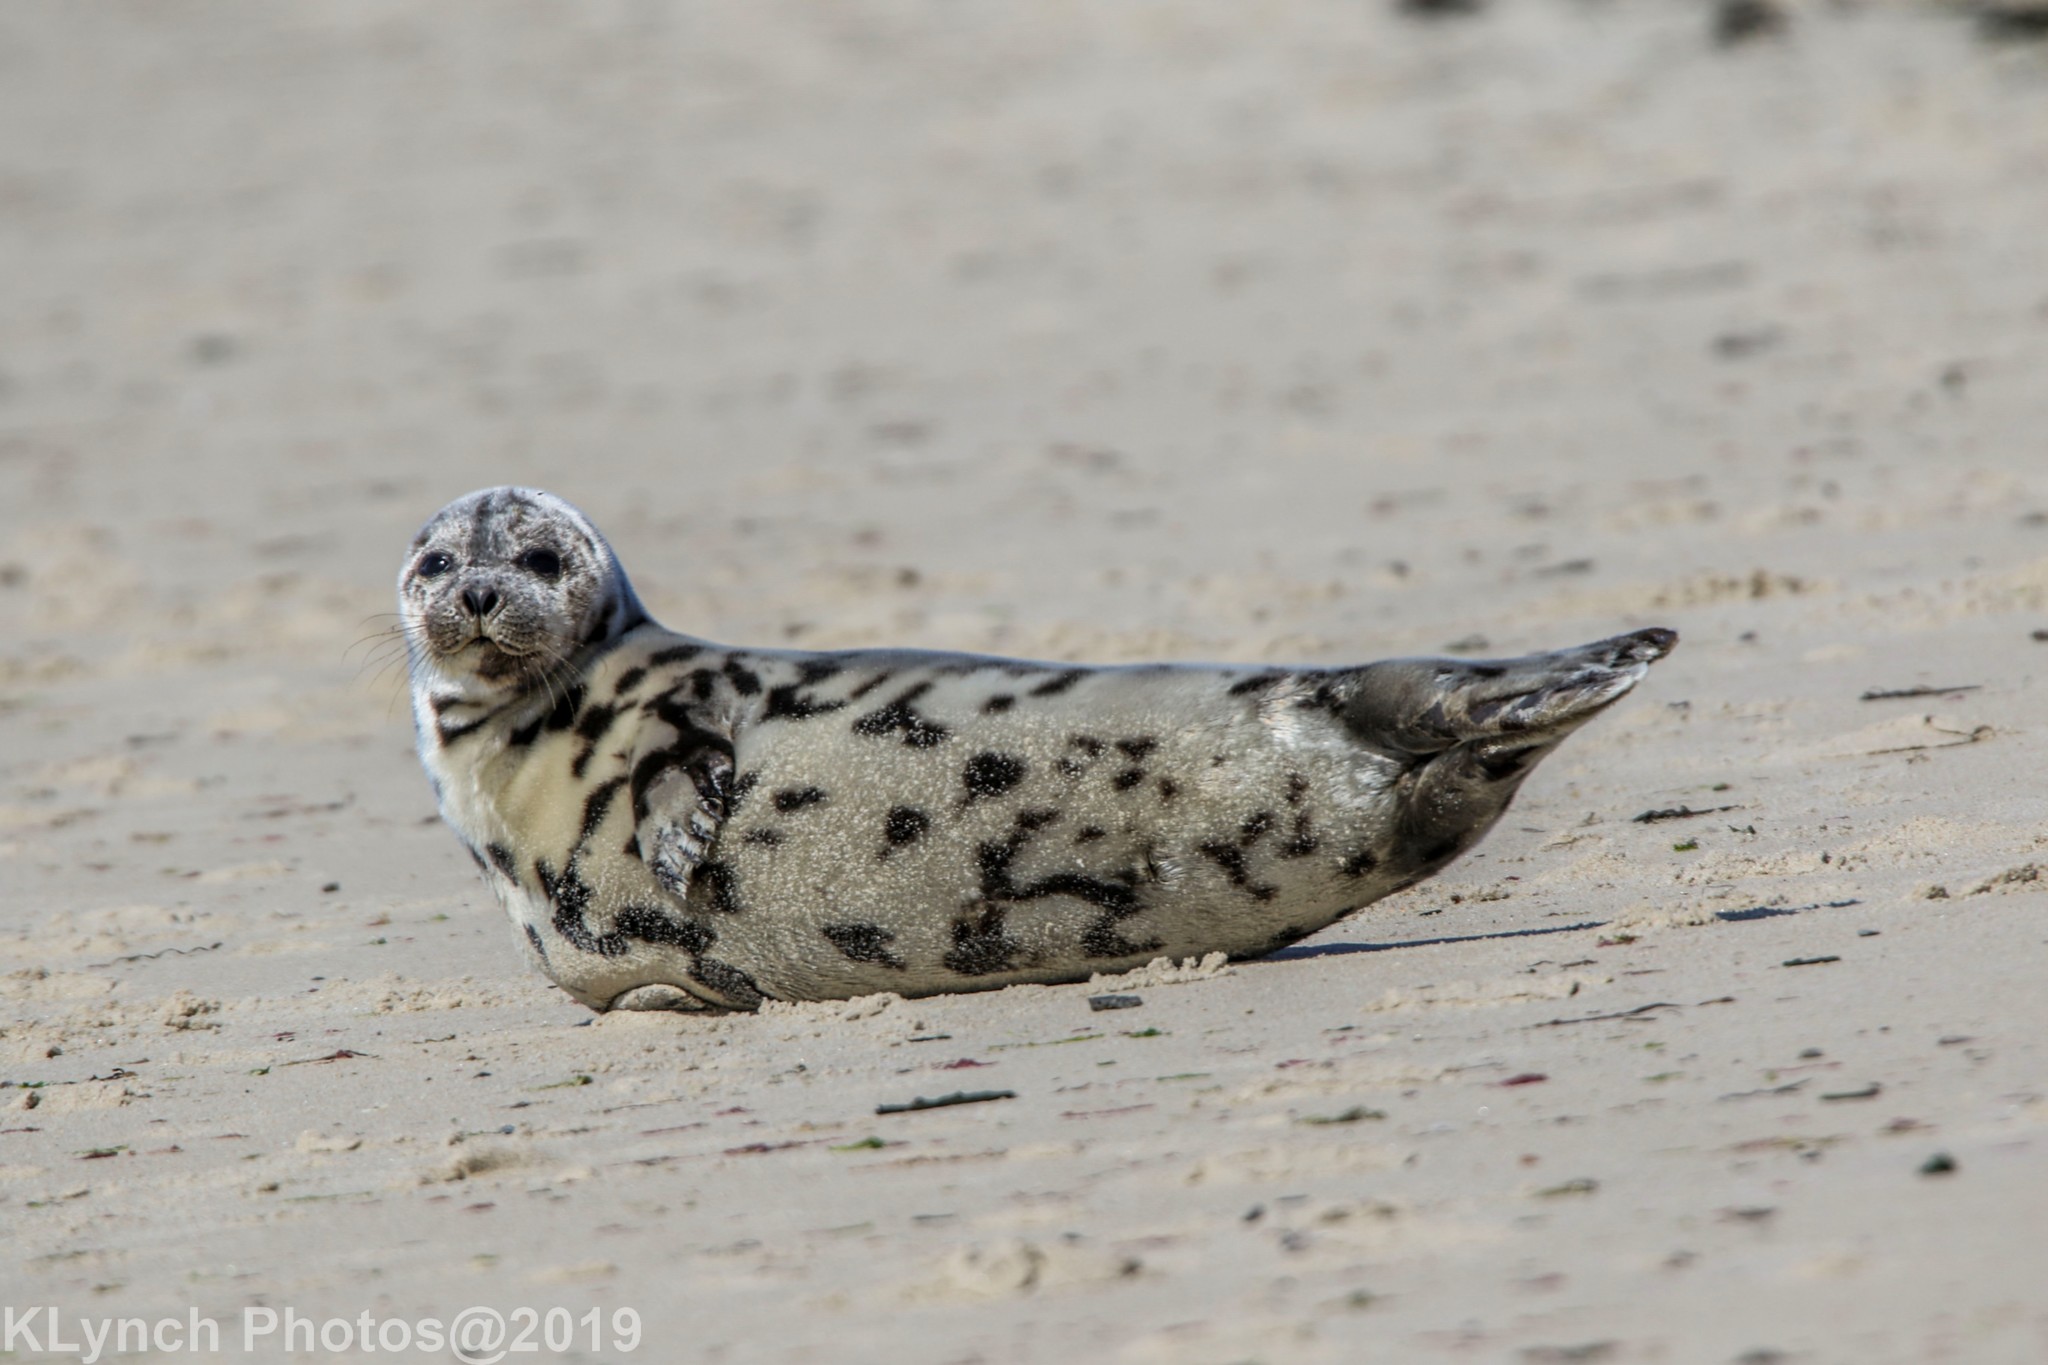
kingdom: Animalia
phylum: Chordata
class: Mammalia
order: Carnivora
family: Phocidae
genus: Pagophilus
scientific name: Pagophilus groenlandicus
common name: Harp seal
